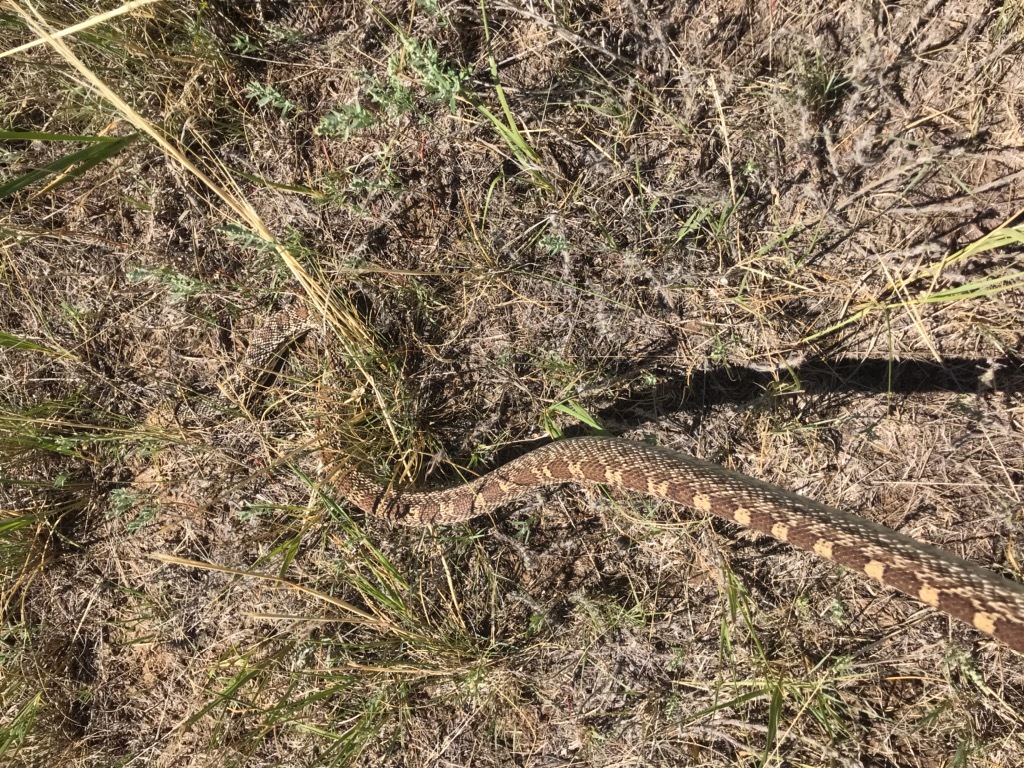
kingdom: Animalia
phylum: Chordata
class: Squamata
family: Colubridae
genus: Pituophis
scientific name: Pituophis catenifer
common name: Gopher snake
